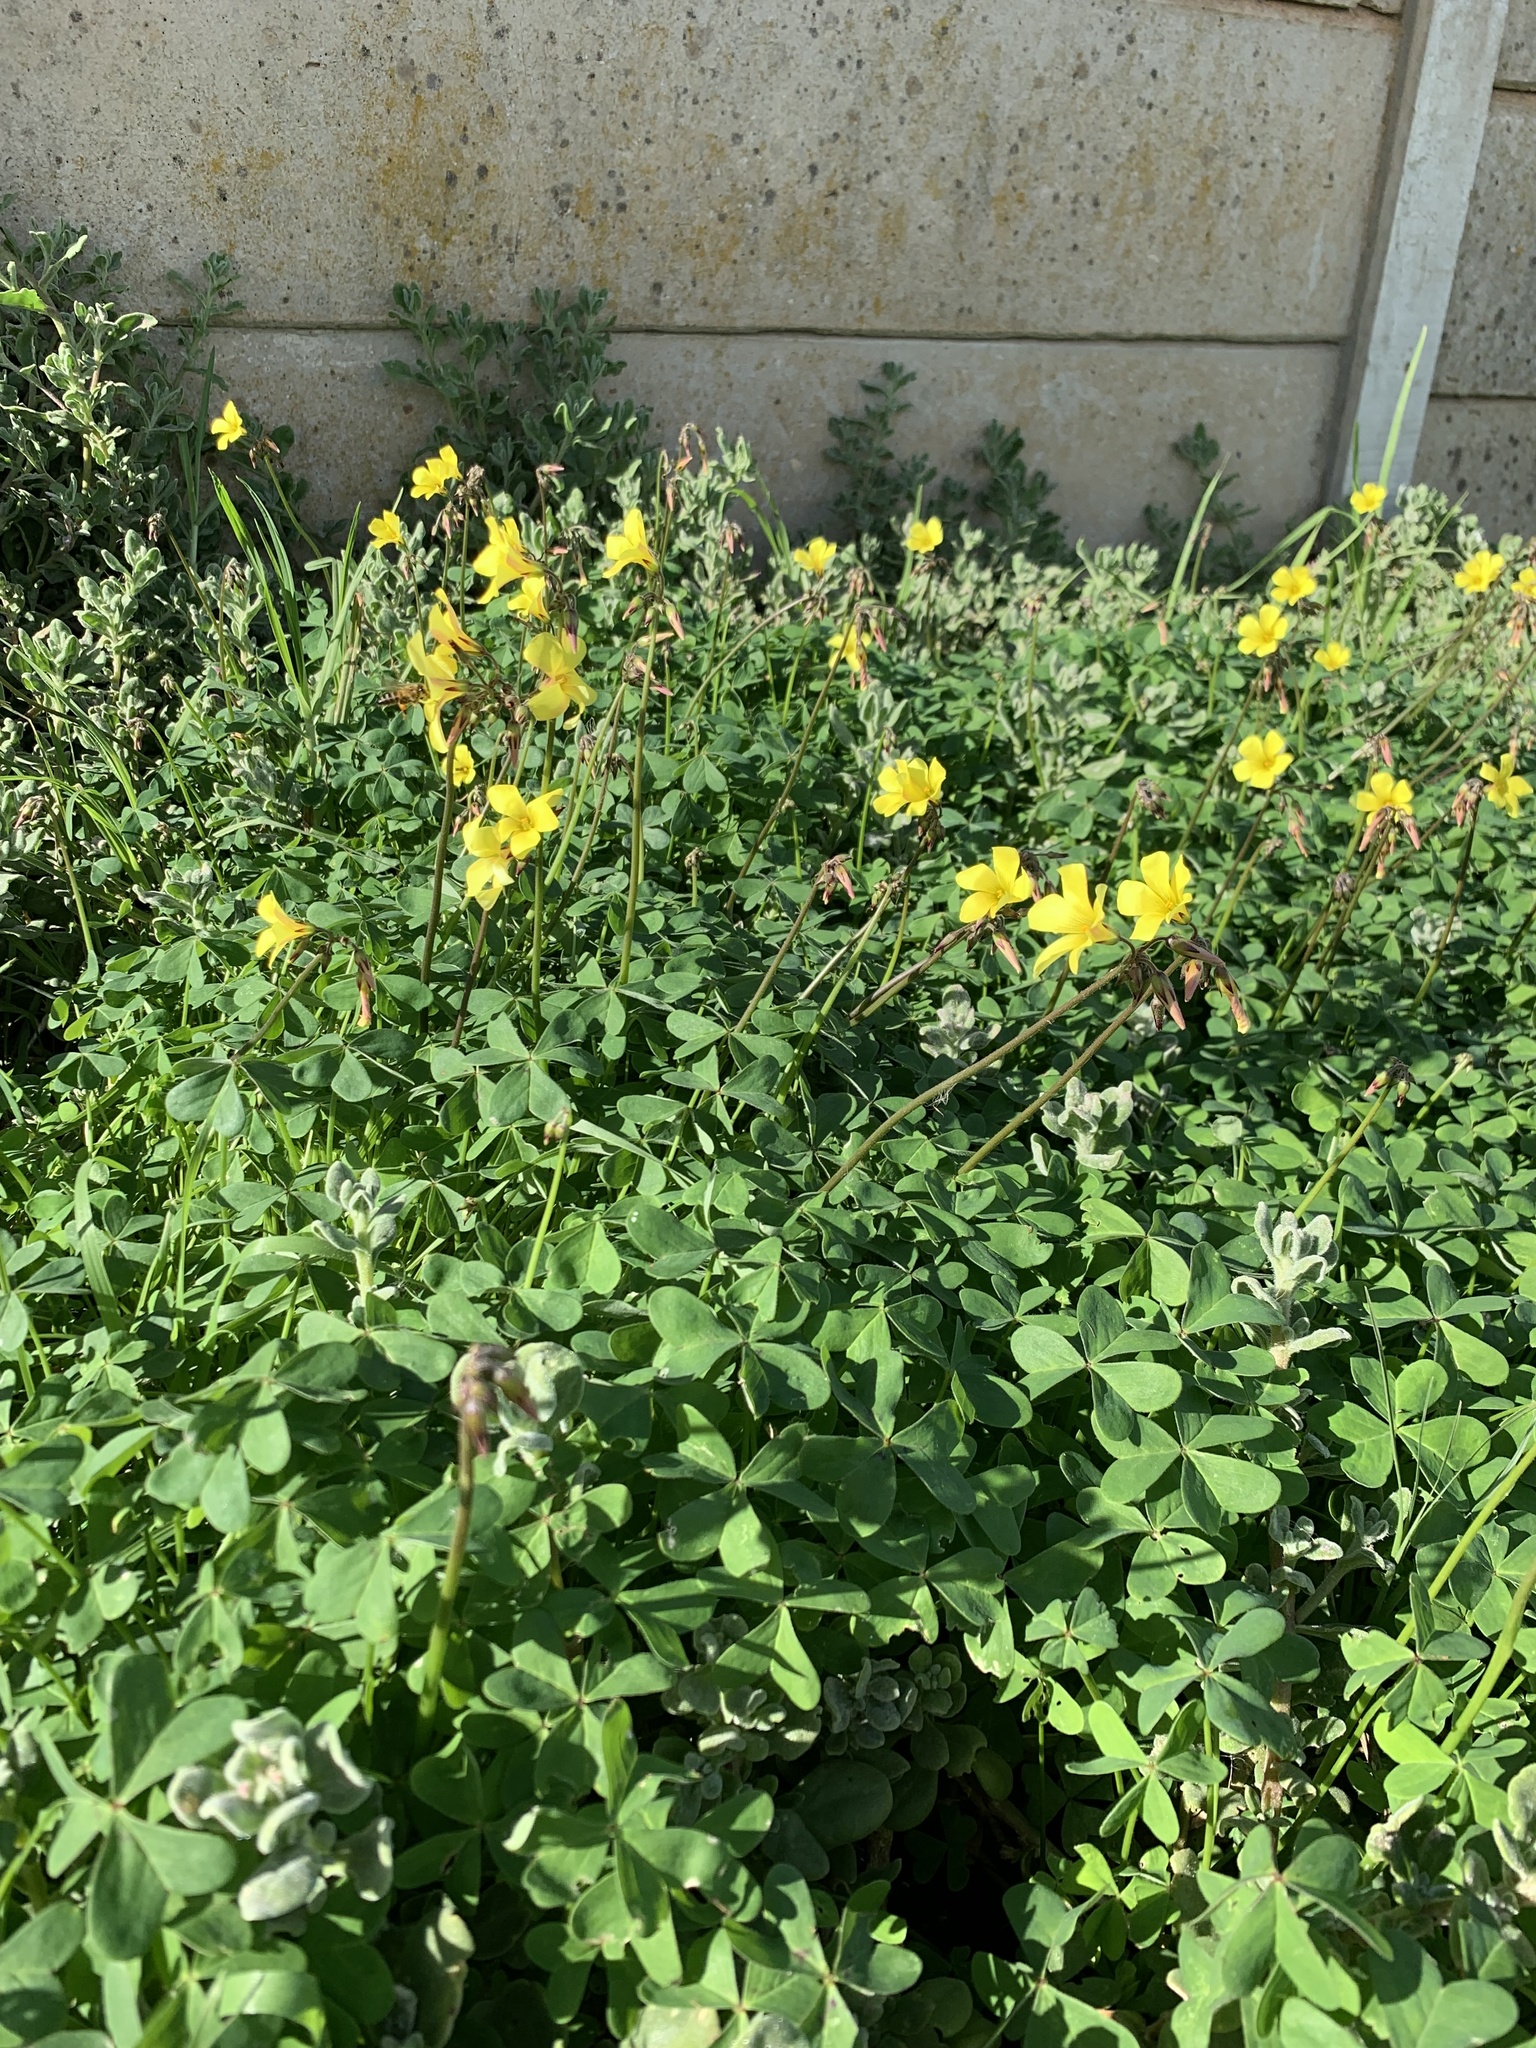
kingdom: Plantae
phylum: Tracheophyta
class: Magnoliopsida
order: Oxalidales
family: Oxalidaceae
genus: Oxalis
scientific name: Oxalis pes-caprae
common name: Bermuda-buttercup
